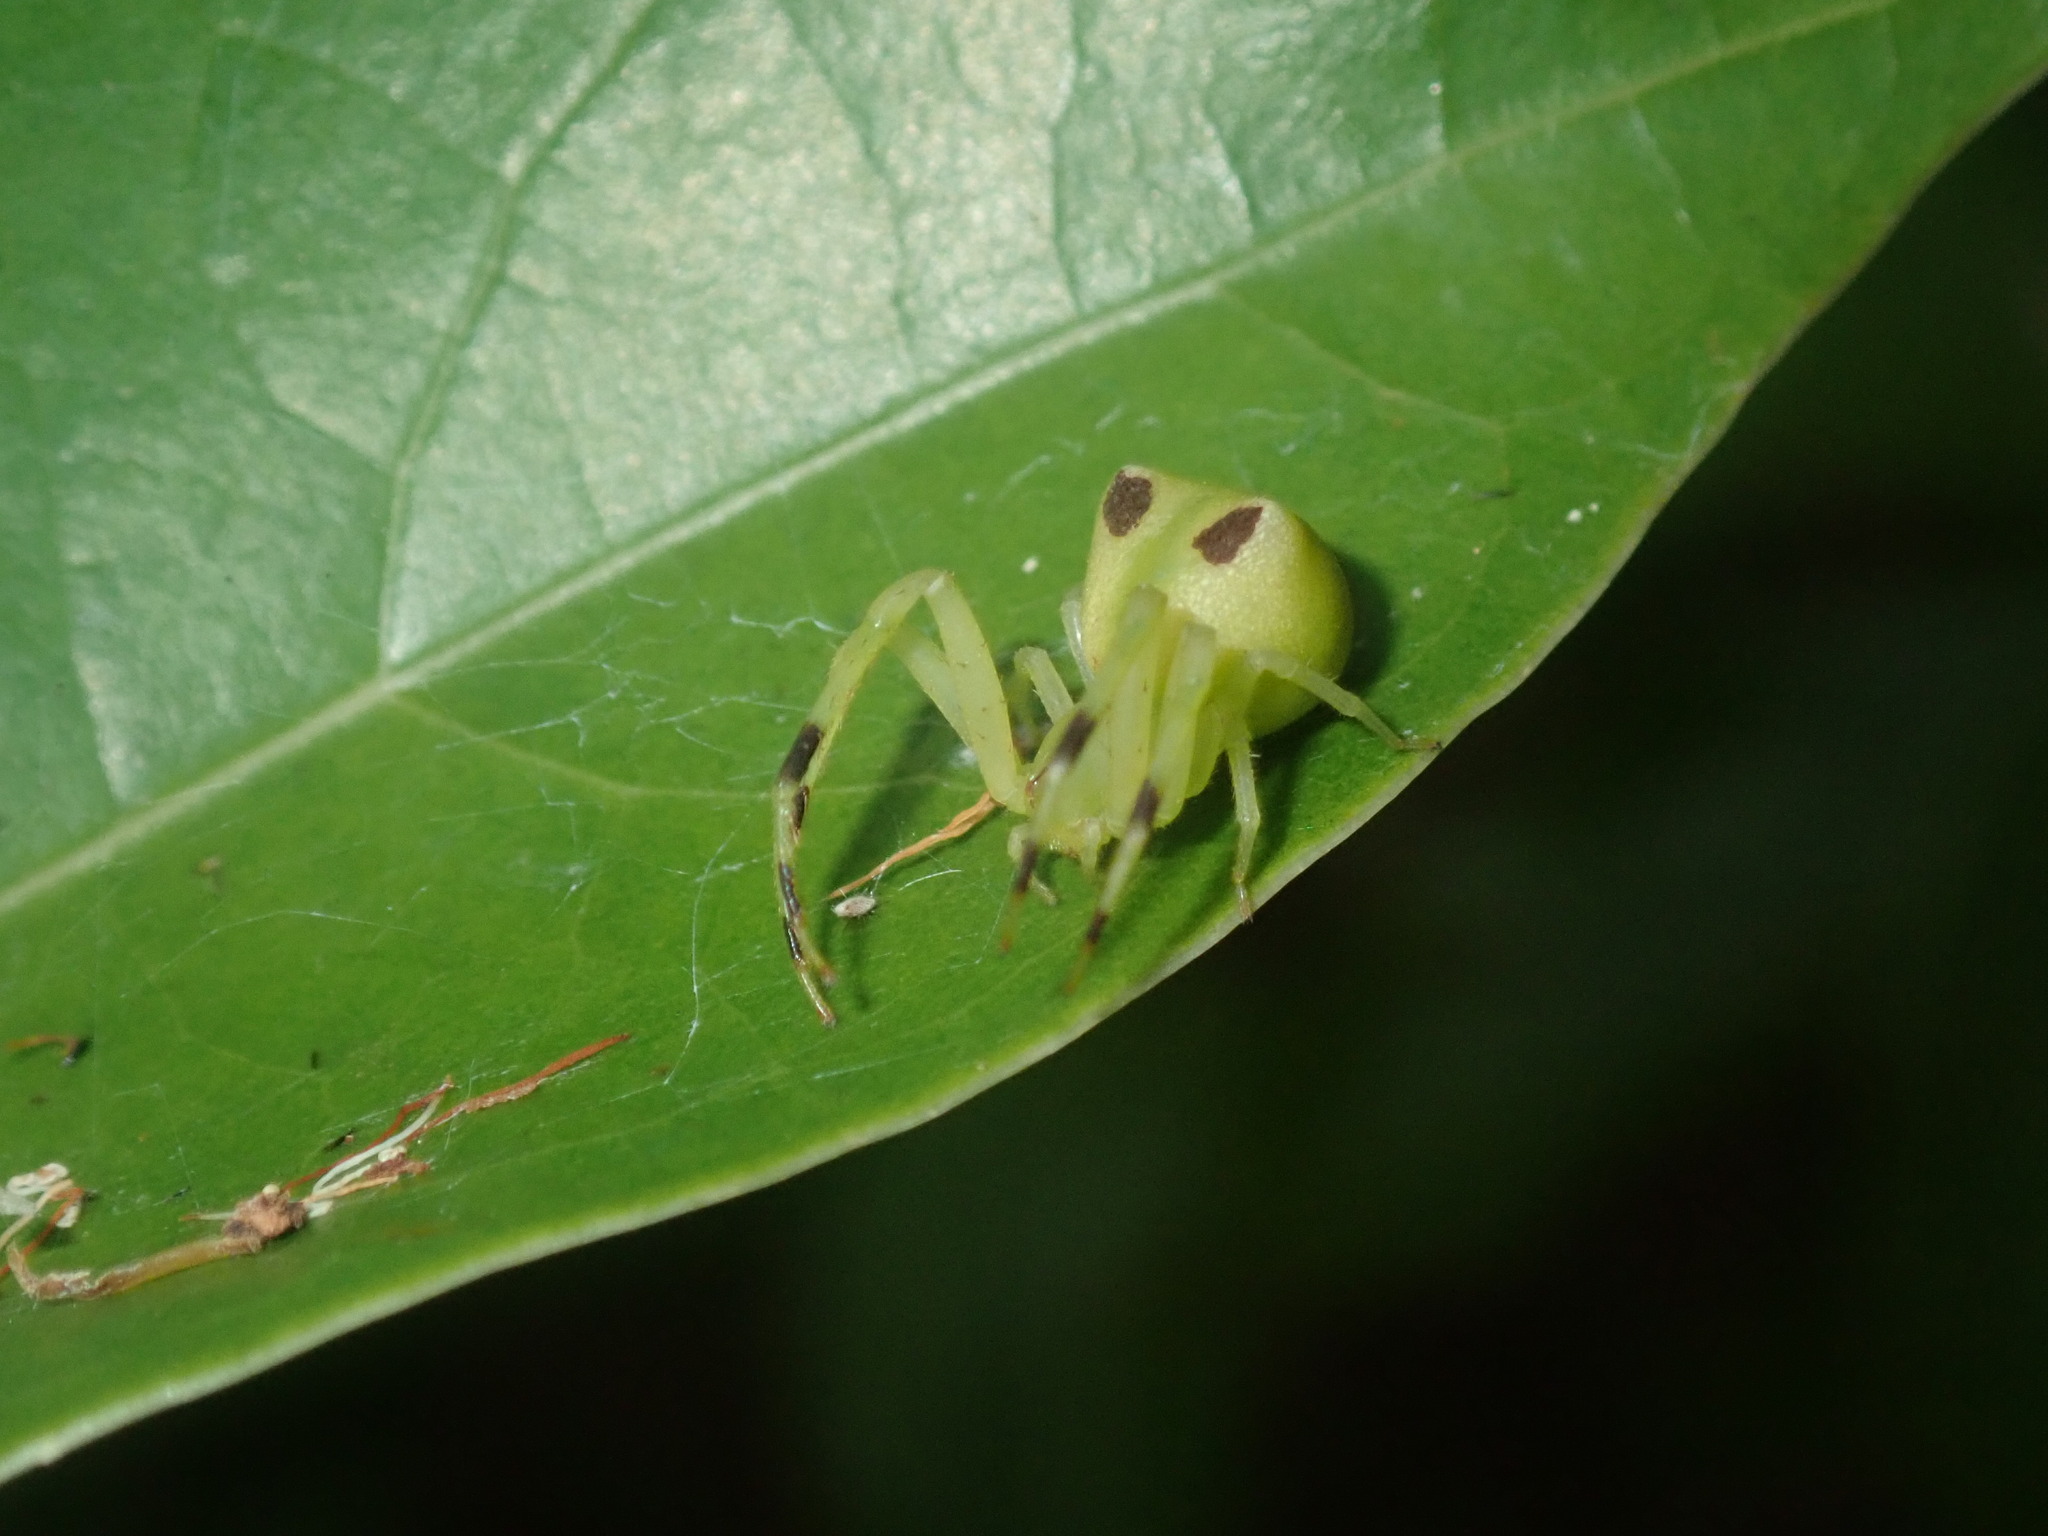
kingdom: Animalia
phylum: Arthropoda
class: Arachnida
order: Araneae
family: Thomisidae
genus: Sidymella
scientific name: Sidymella rubrosignata
